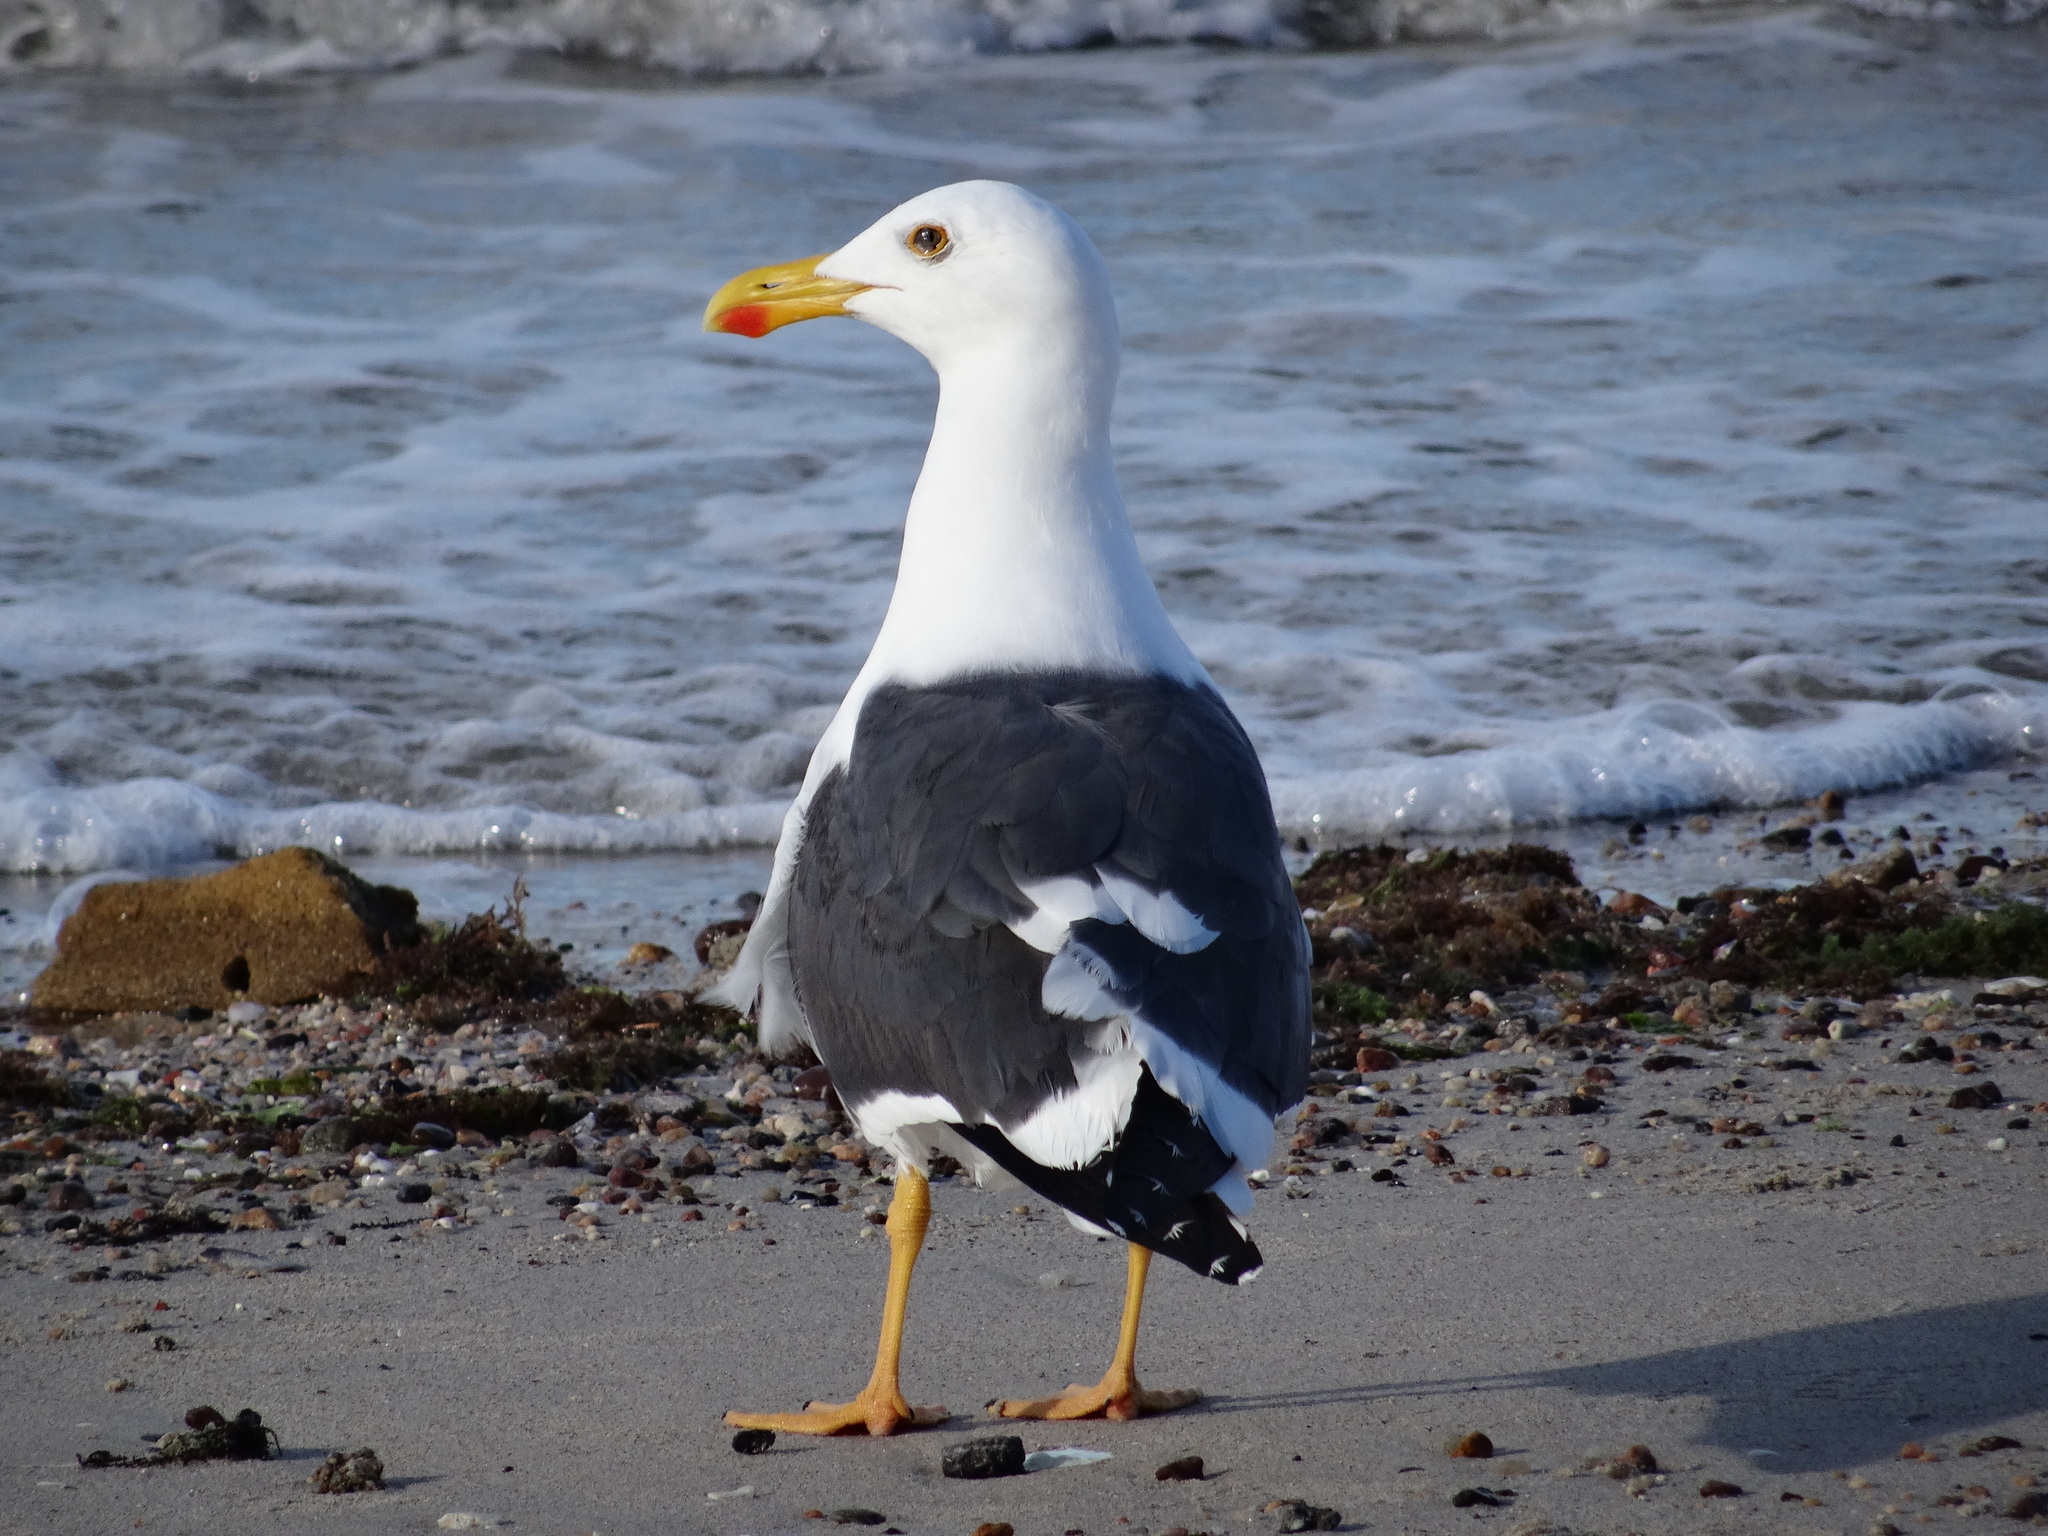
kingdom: Animalia
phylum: Chordata
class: Aves
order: Charadriiformes
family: Laridae
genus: Larus
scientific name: Larus livens
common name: Yellow-footed gull
